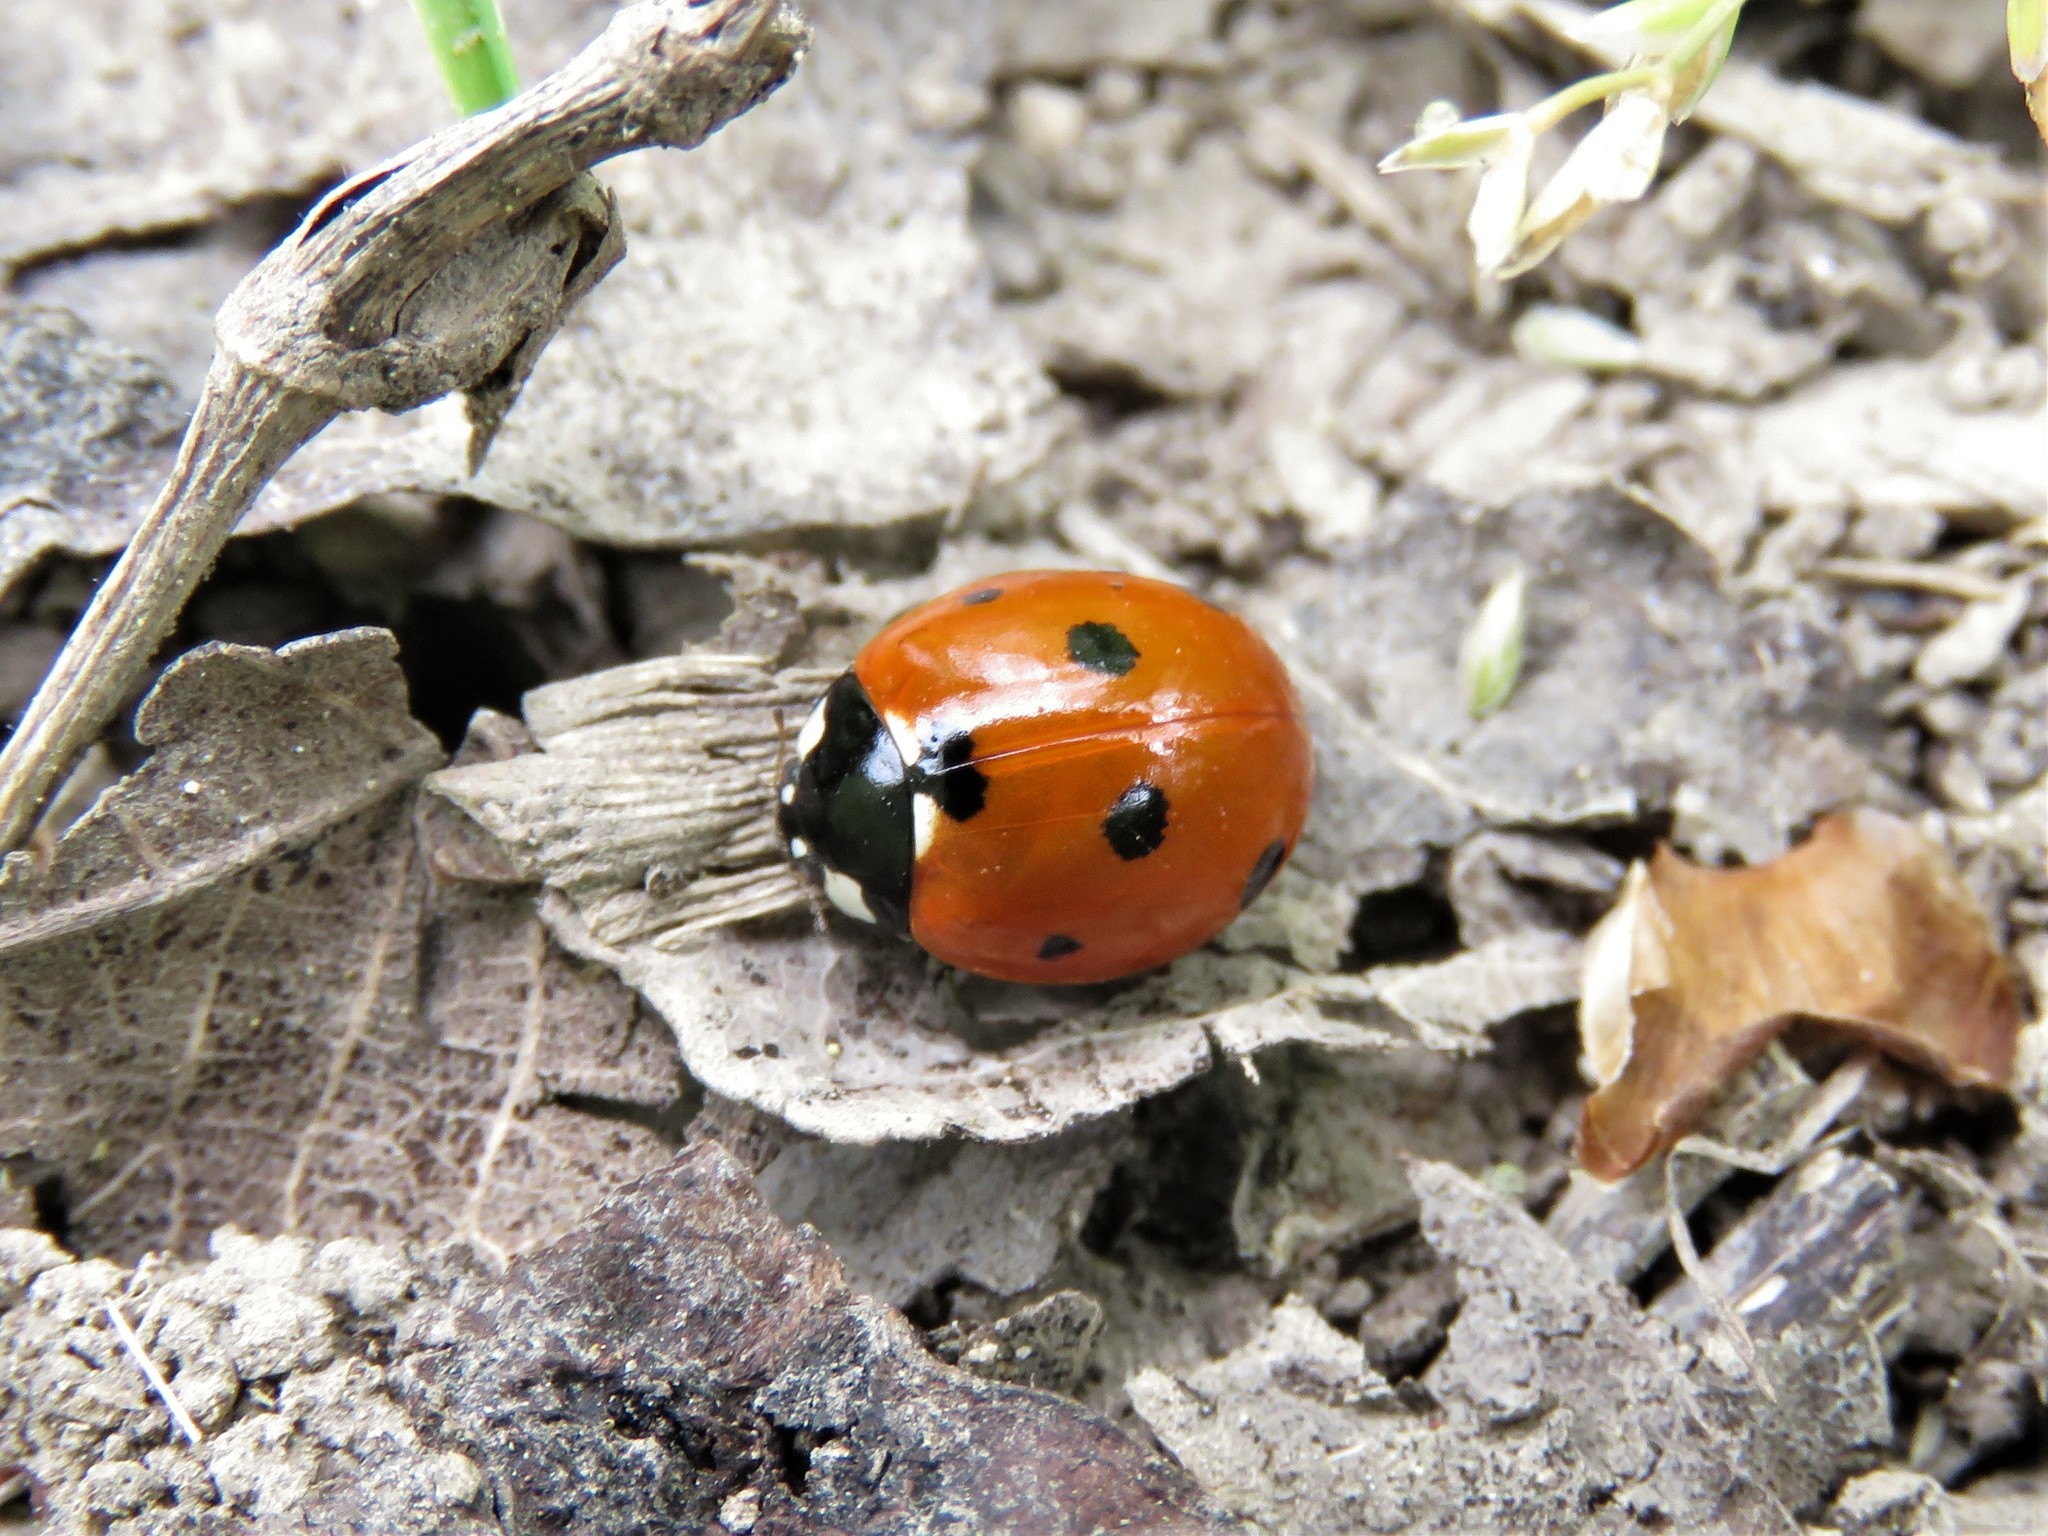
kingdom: Animalia
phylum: Arthropoda
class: Insecta
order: Coleoptera
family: Coccinellidae
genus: Coccinella
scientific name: Coccinella septempunctata
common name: Sevenspotted lady beetle
